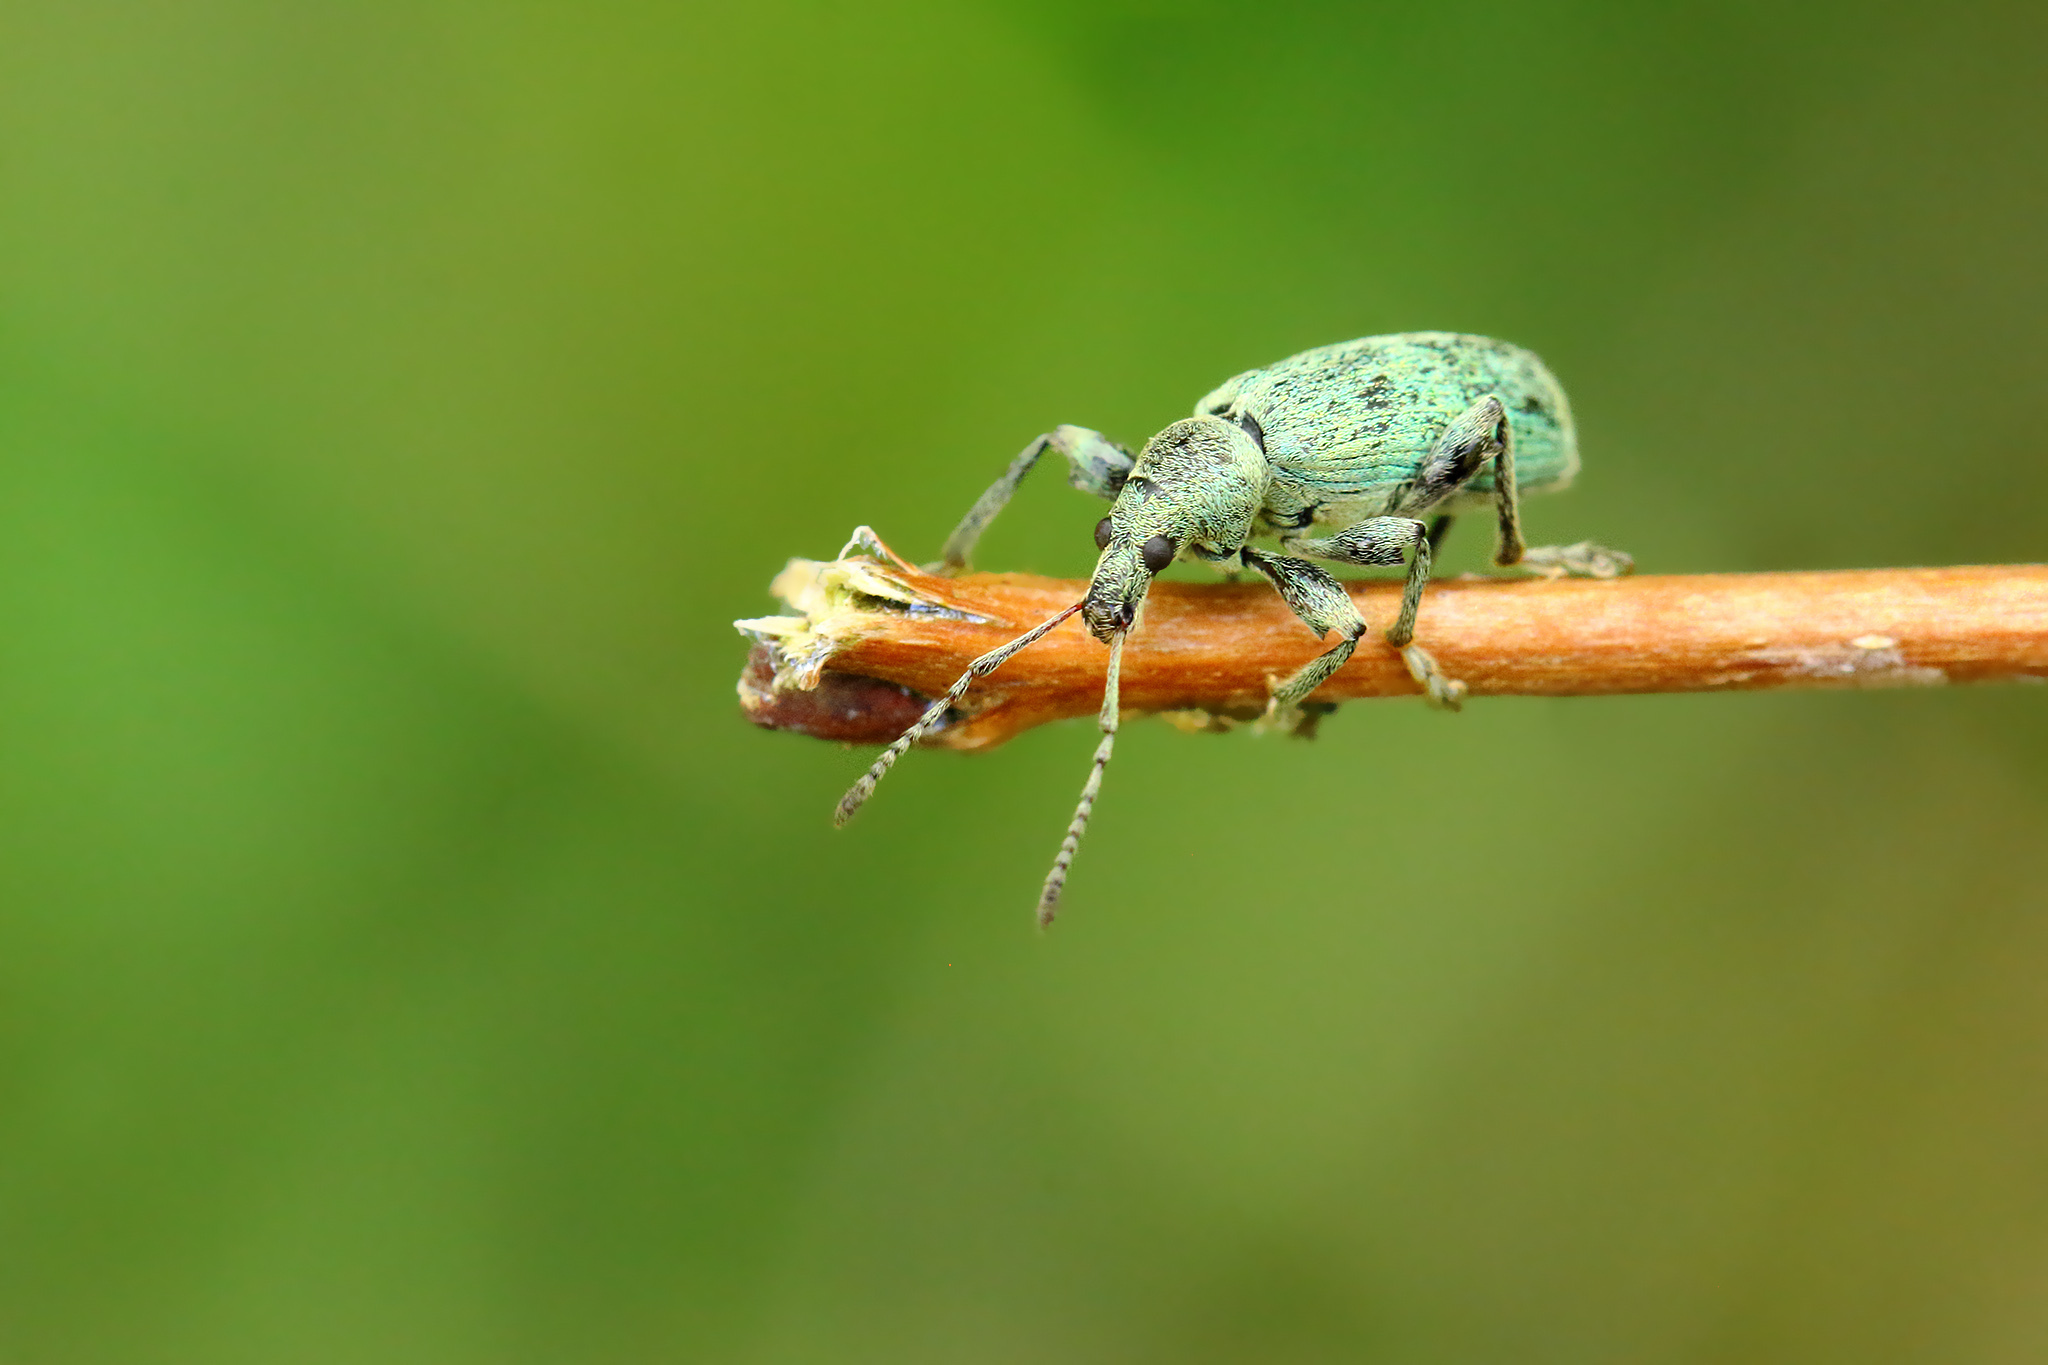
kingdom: Animalia
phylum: Arthropoda
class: Insecta
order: Coleoptera
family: Curculionidae
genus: Phyllobius
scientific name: Phyllobius pomaceus
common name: Green nettle weevil
